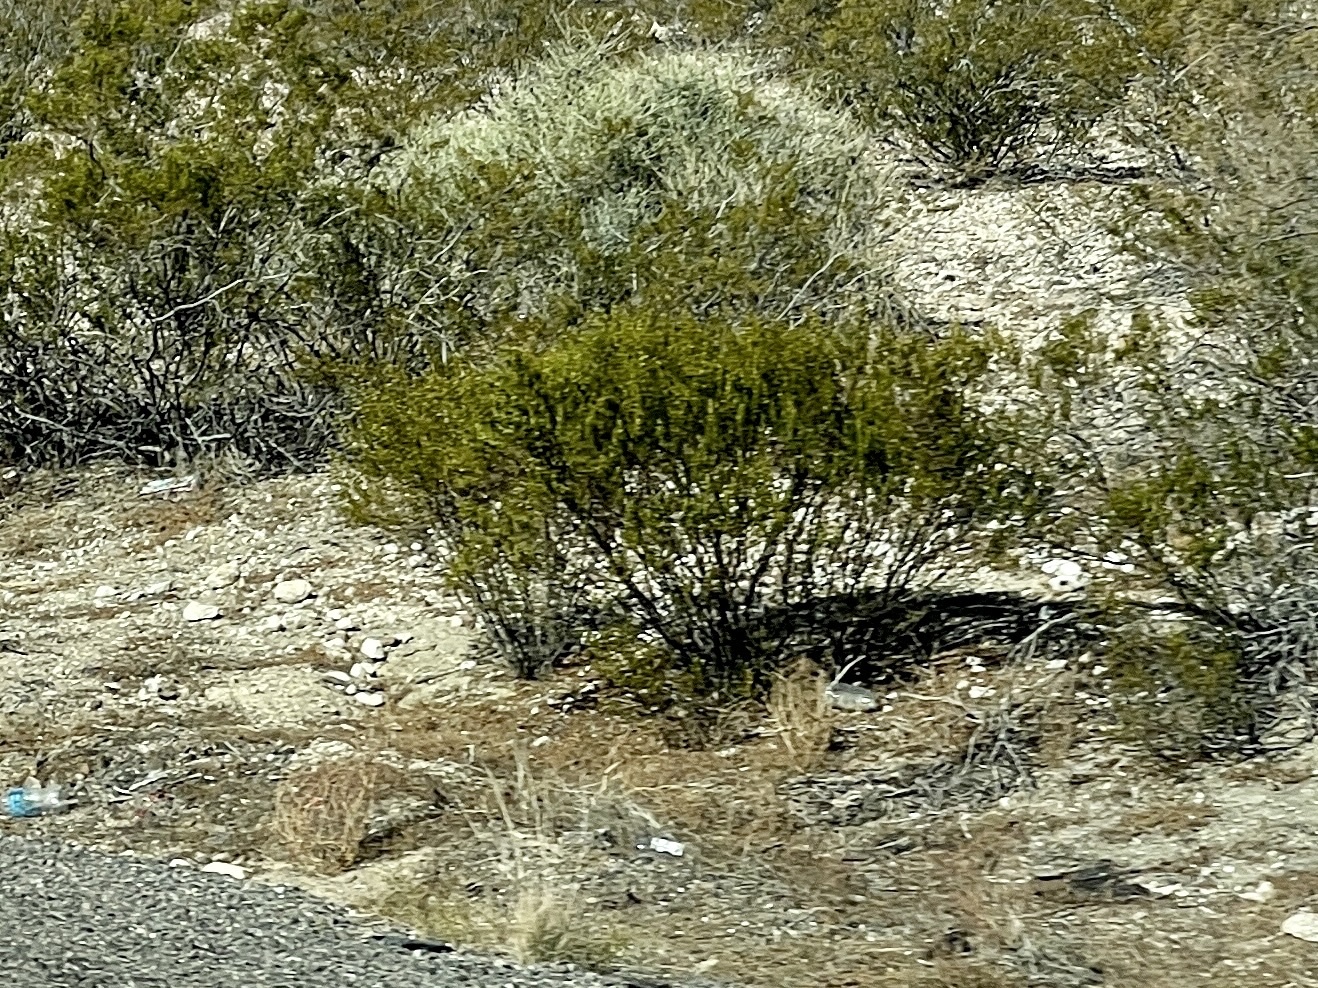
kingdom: Plantae
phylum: Tracheophyta
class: Magnoliopsida
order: Zygophyllales
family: Zygophyllaceae
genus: Larrea
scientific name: Larrea tridentata
